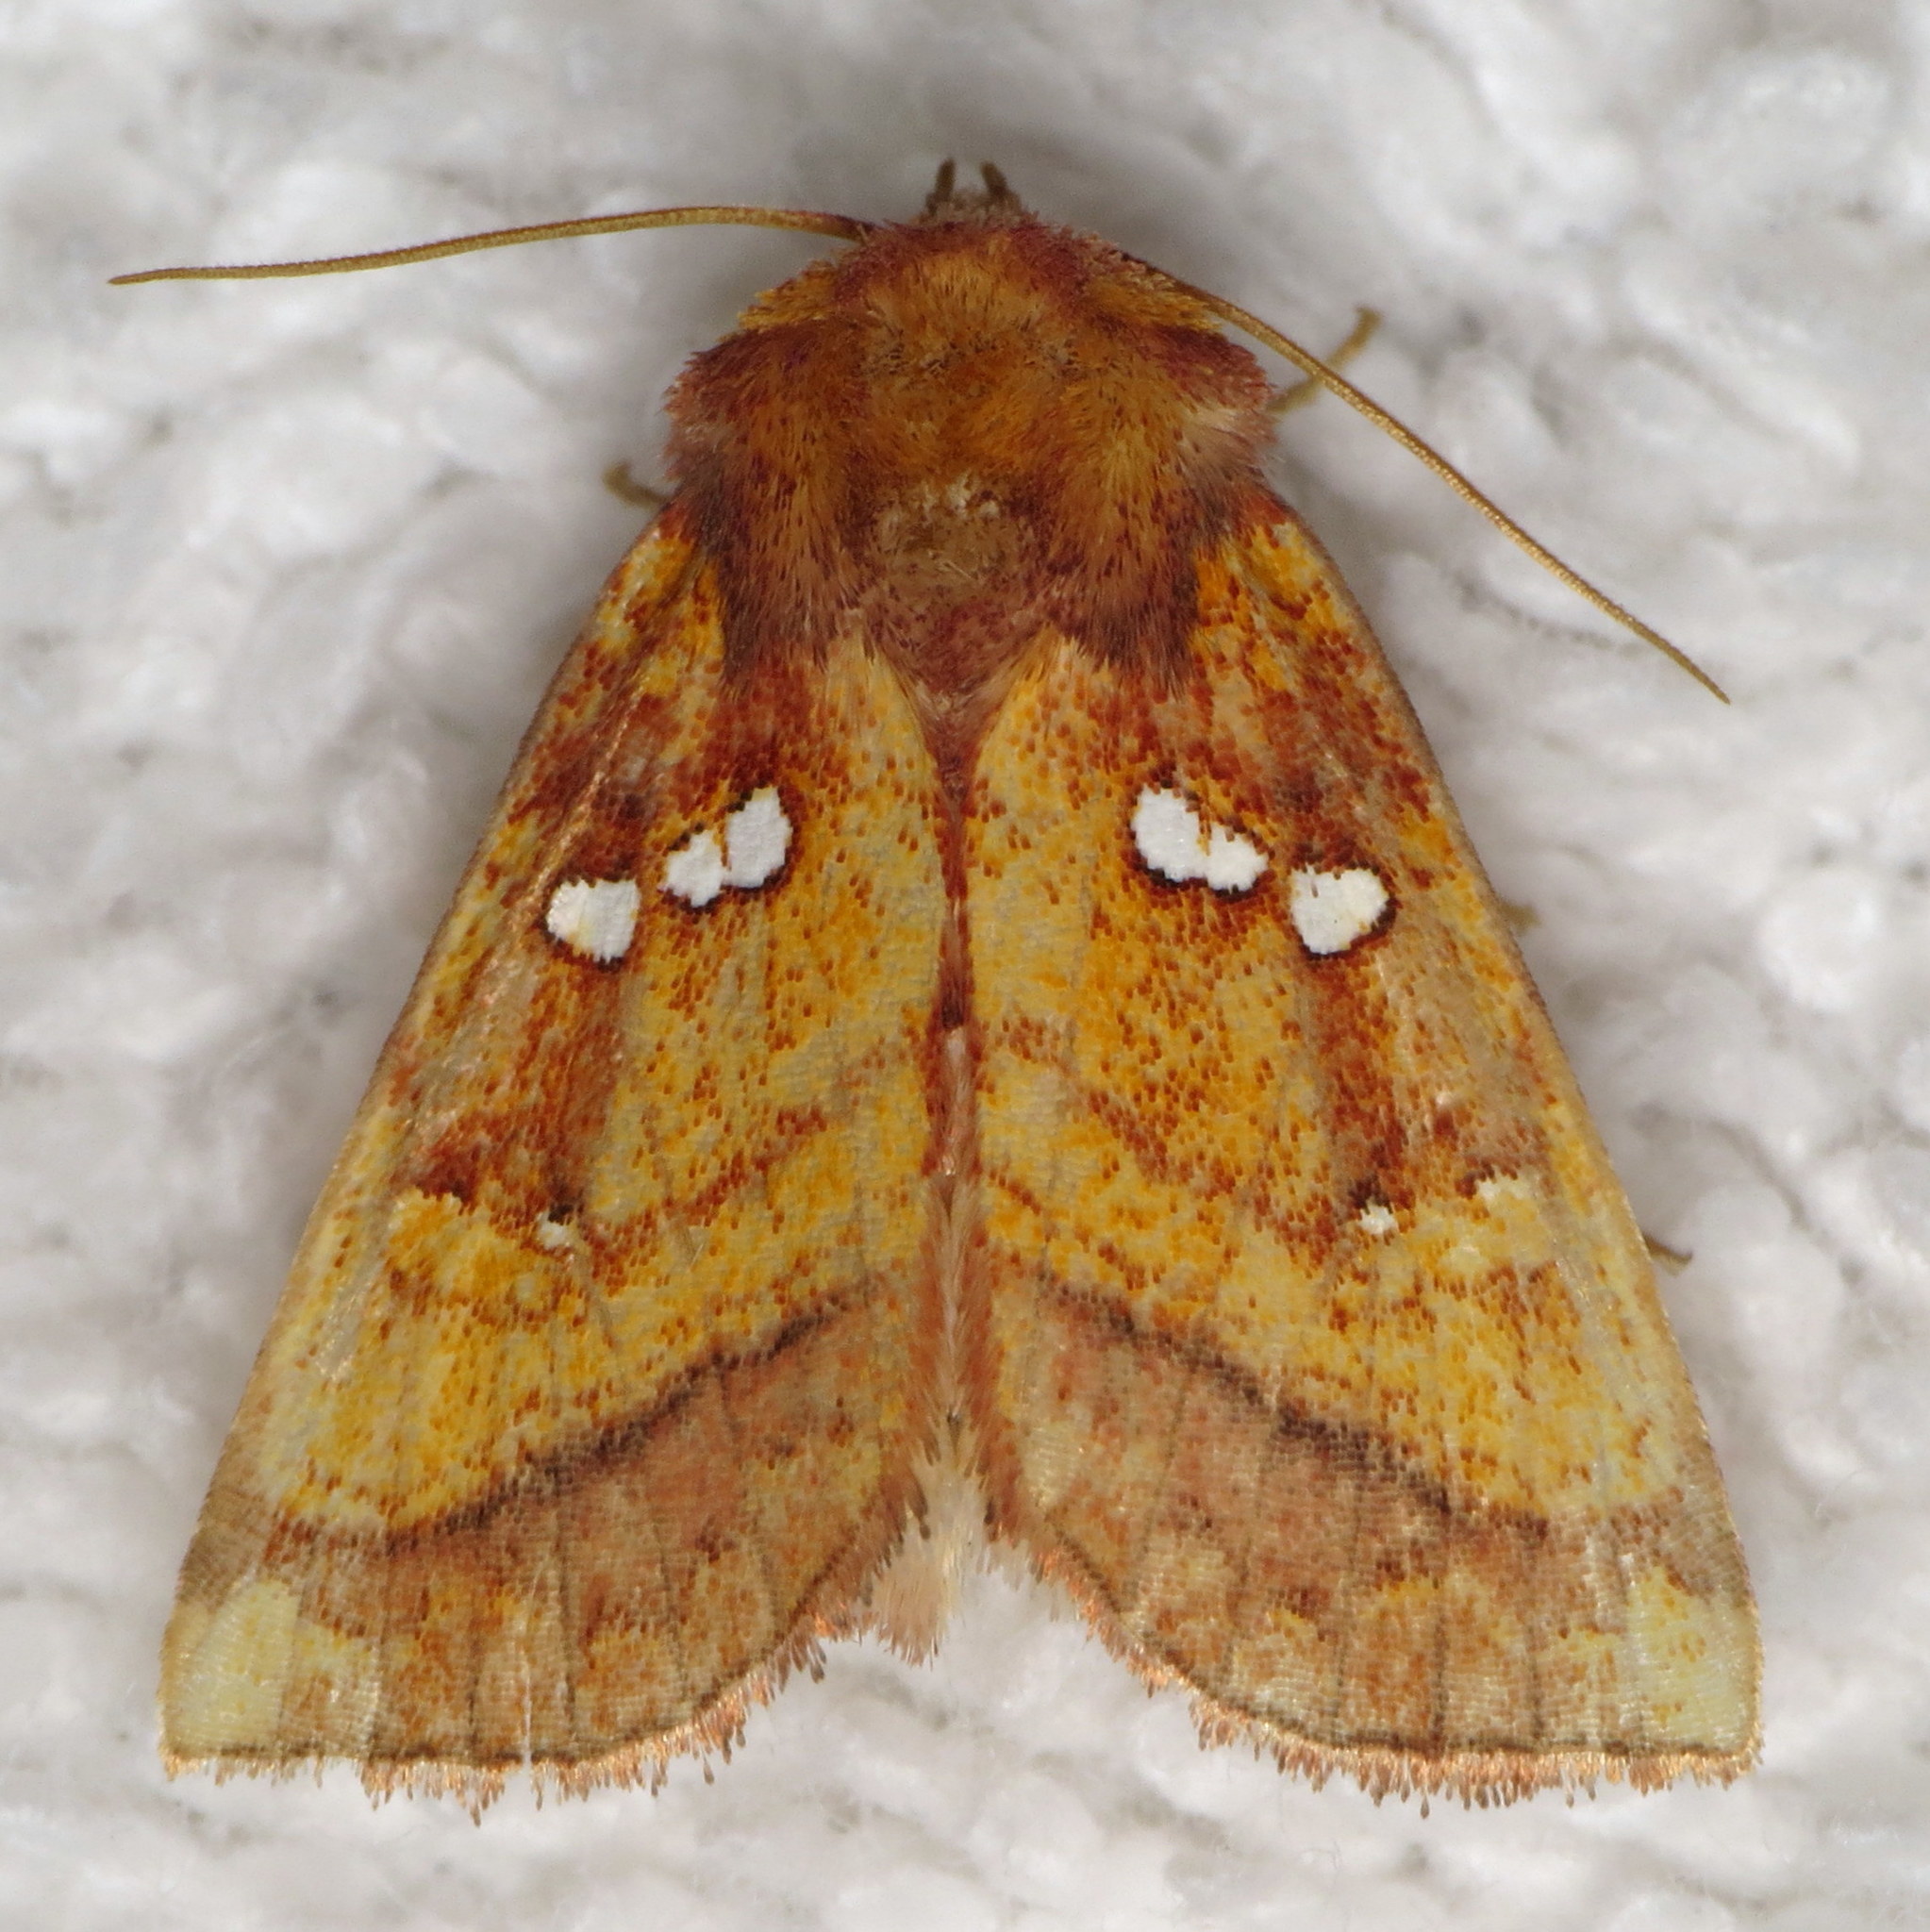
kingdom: Animalia
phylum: Arthropoda
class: Insecta
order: Lepidoptera
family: Noctuidae
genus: Papaipema
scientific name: Papaipema lysimachiae
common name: Loosestrife borer moth
